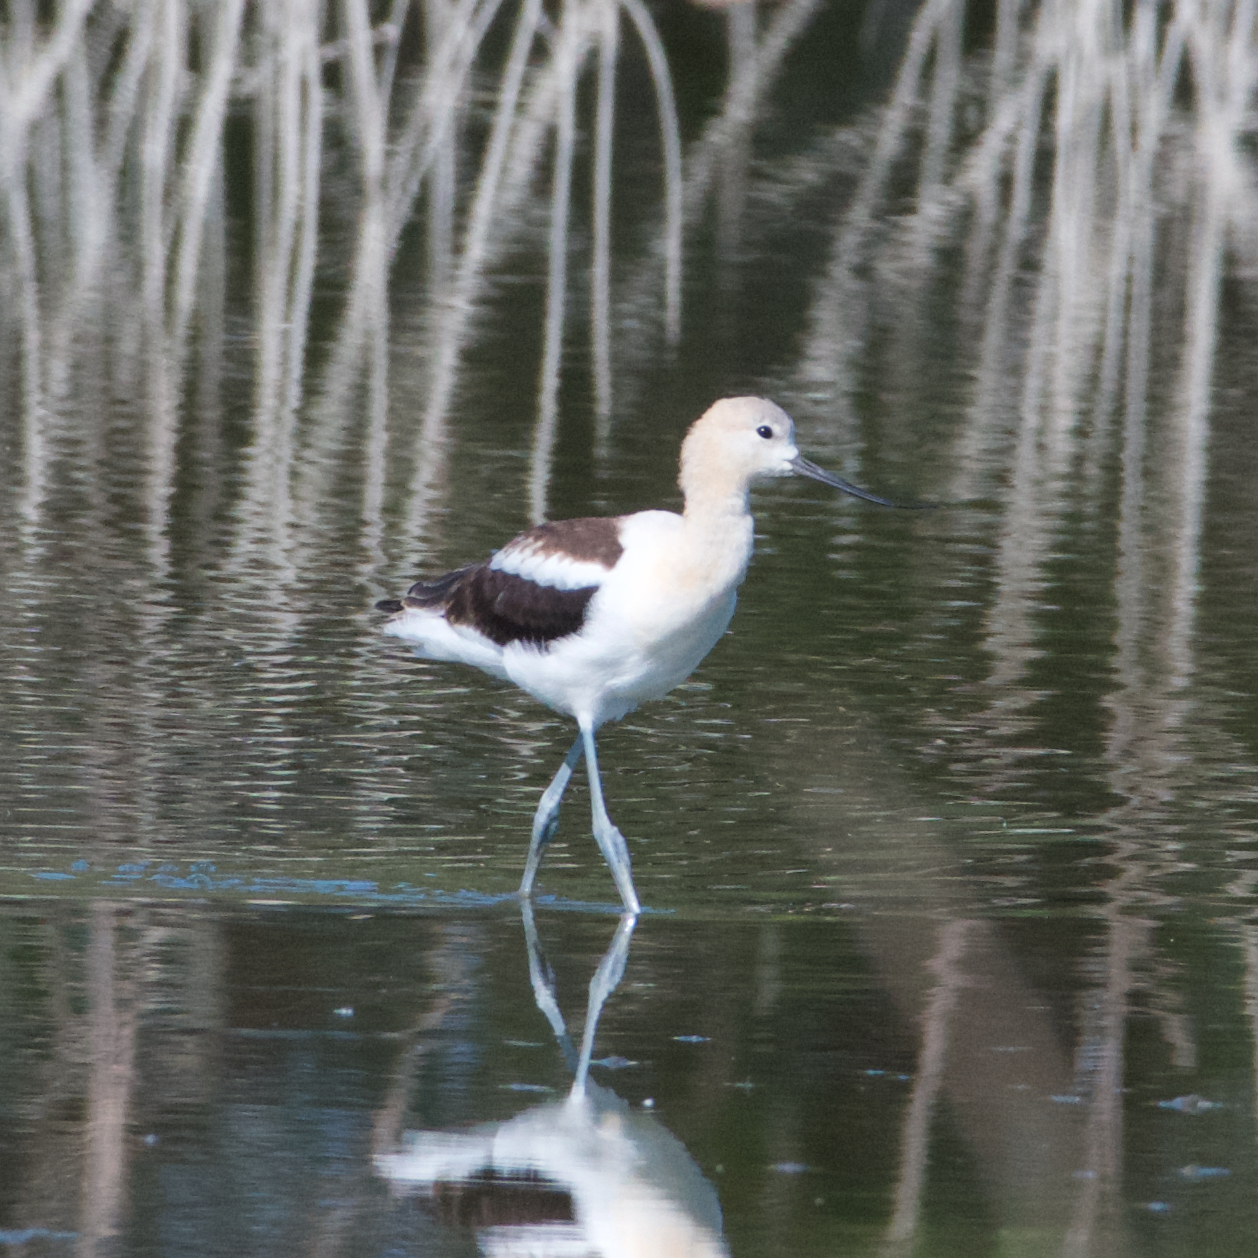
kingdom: Animalia
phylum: Chordata
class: Aves
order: Charadriiformes
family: Recurvirostridae
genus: Recurvirostra
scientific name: Recurvirostra americana
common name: American avocet
